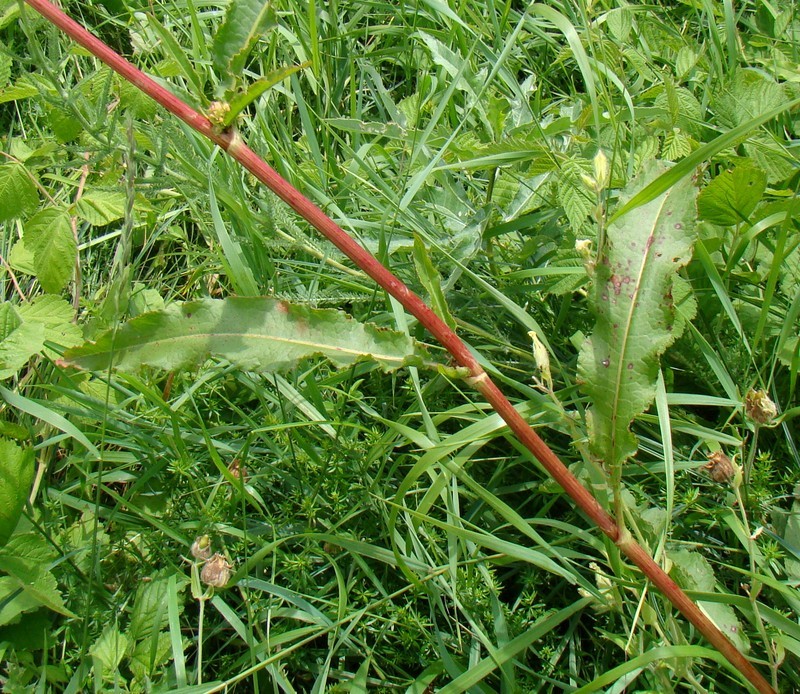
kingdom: Plantae
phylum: Tracheophyta
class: Magnoliopsida
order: Caryophyllales
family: Polygonaceae
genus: Rumex
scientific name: Rumex crispus
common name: Curled dock
